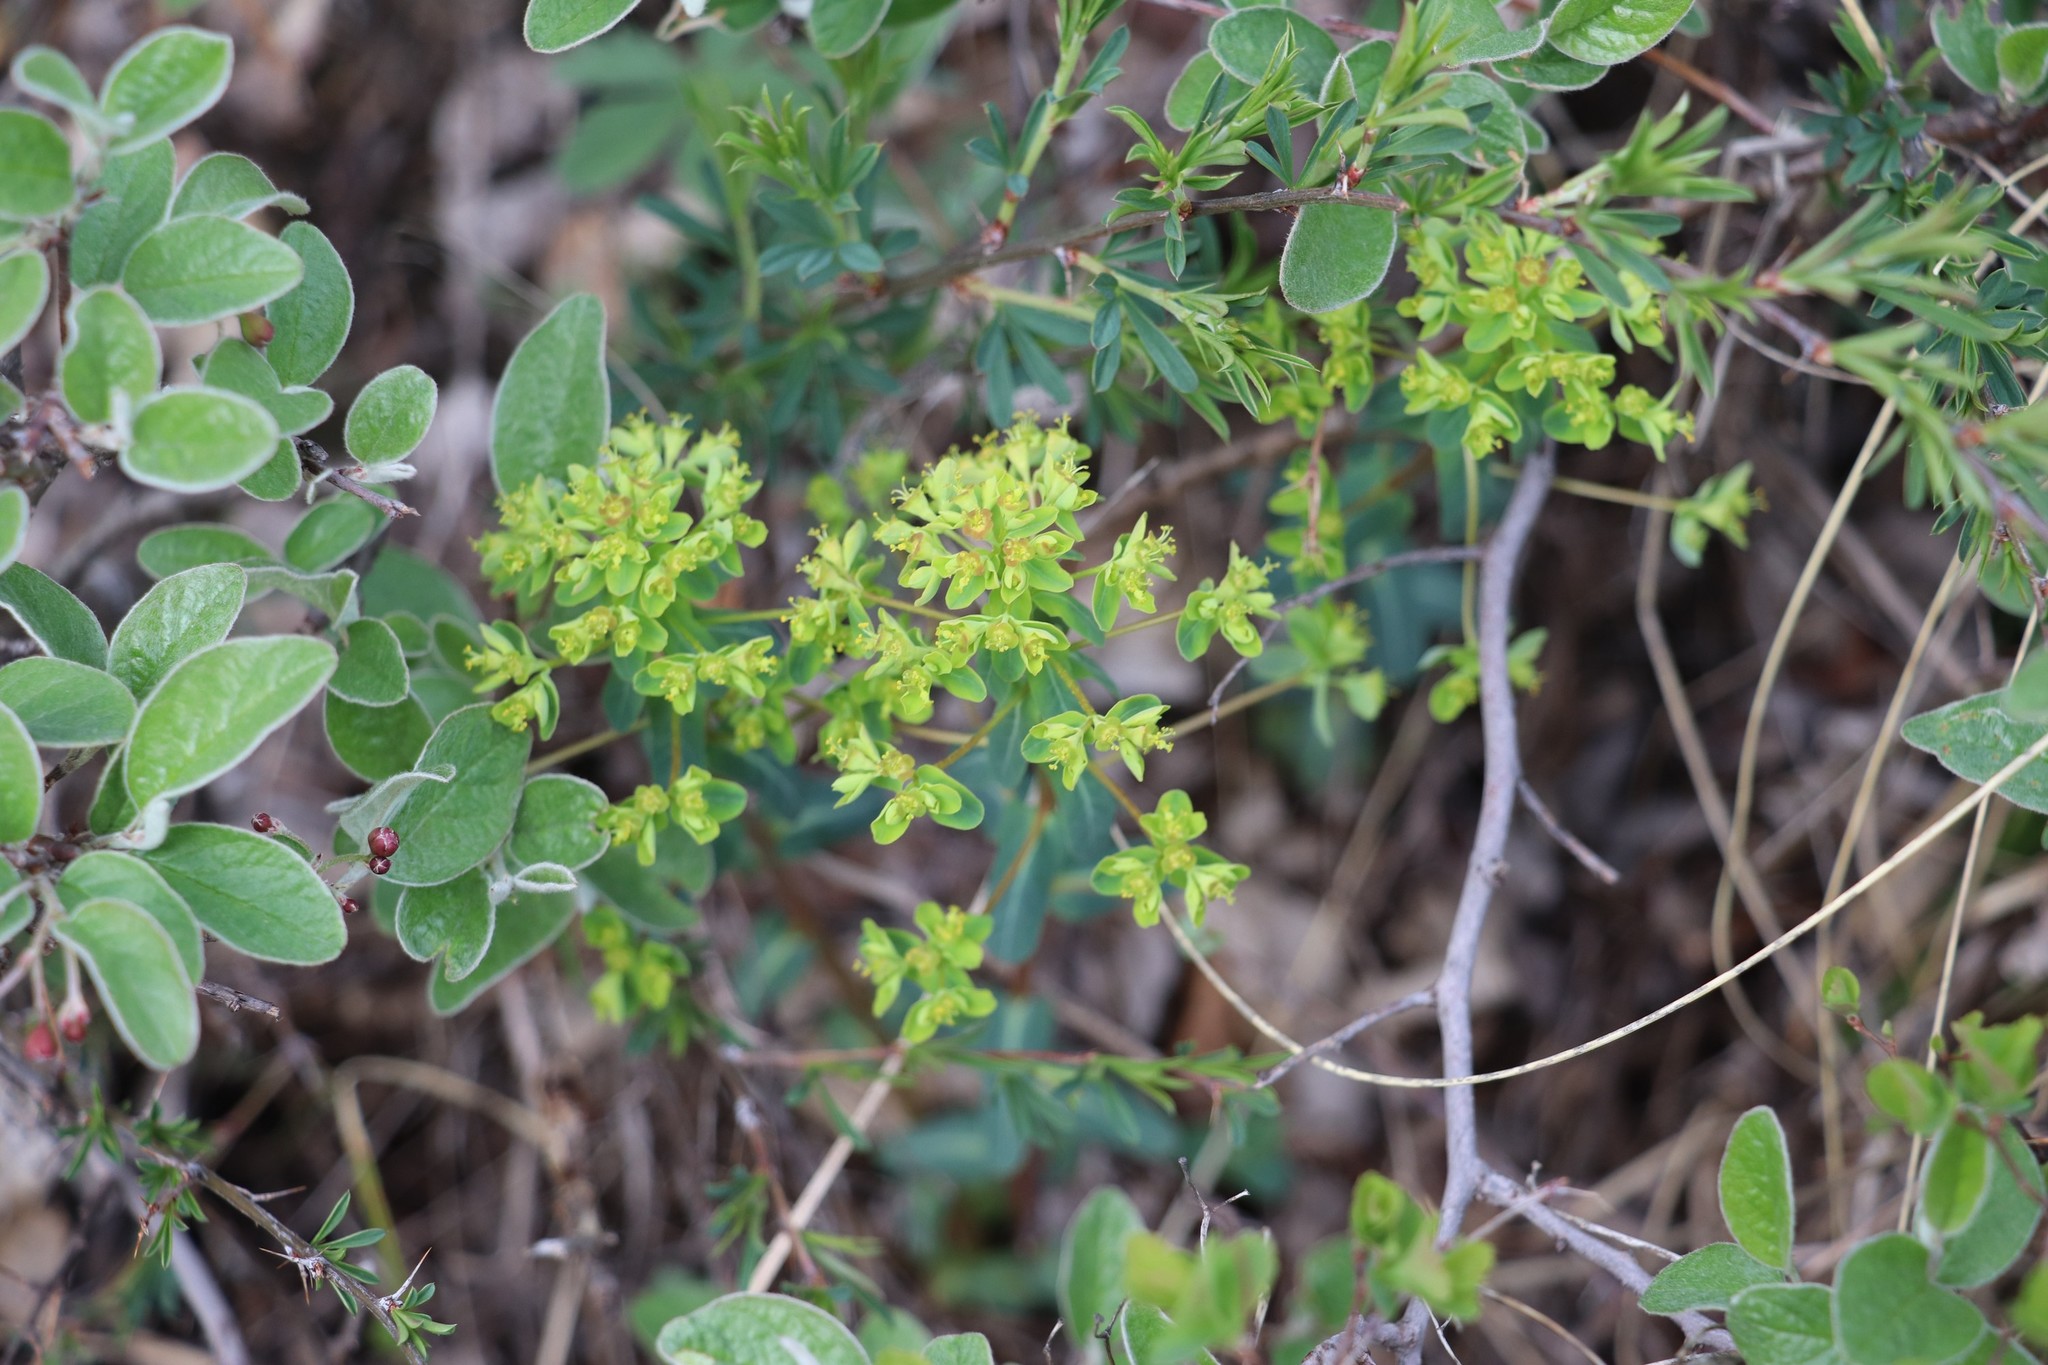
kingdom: Plantae
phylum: Tracheophyta
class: Magnoliopsida
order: Malpighiales
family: Euphorbiaceae
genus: Euphorbia
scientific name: Euphorbia alpina
